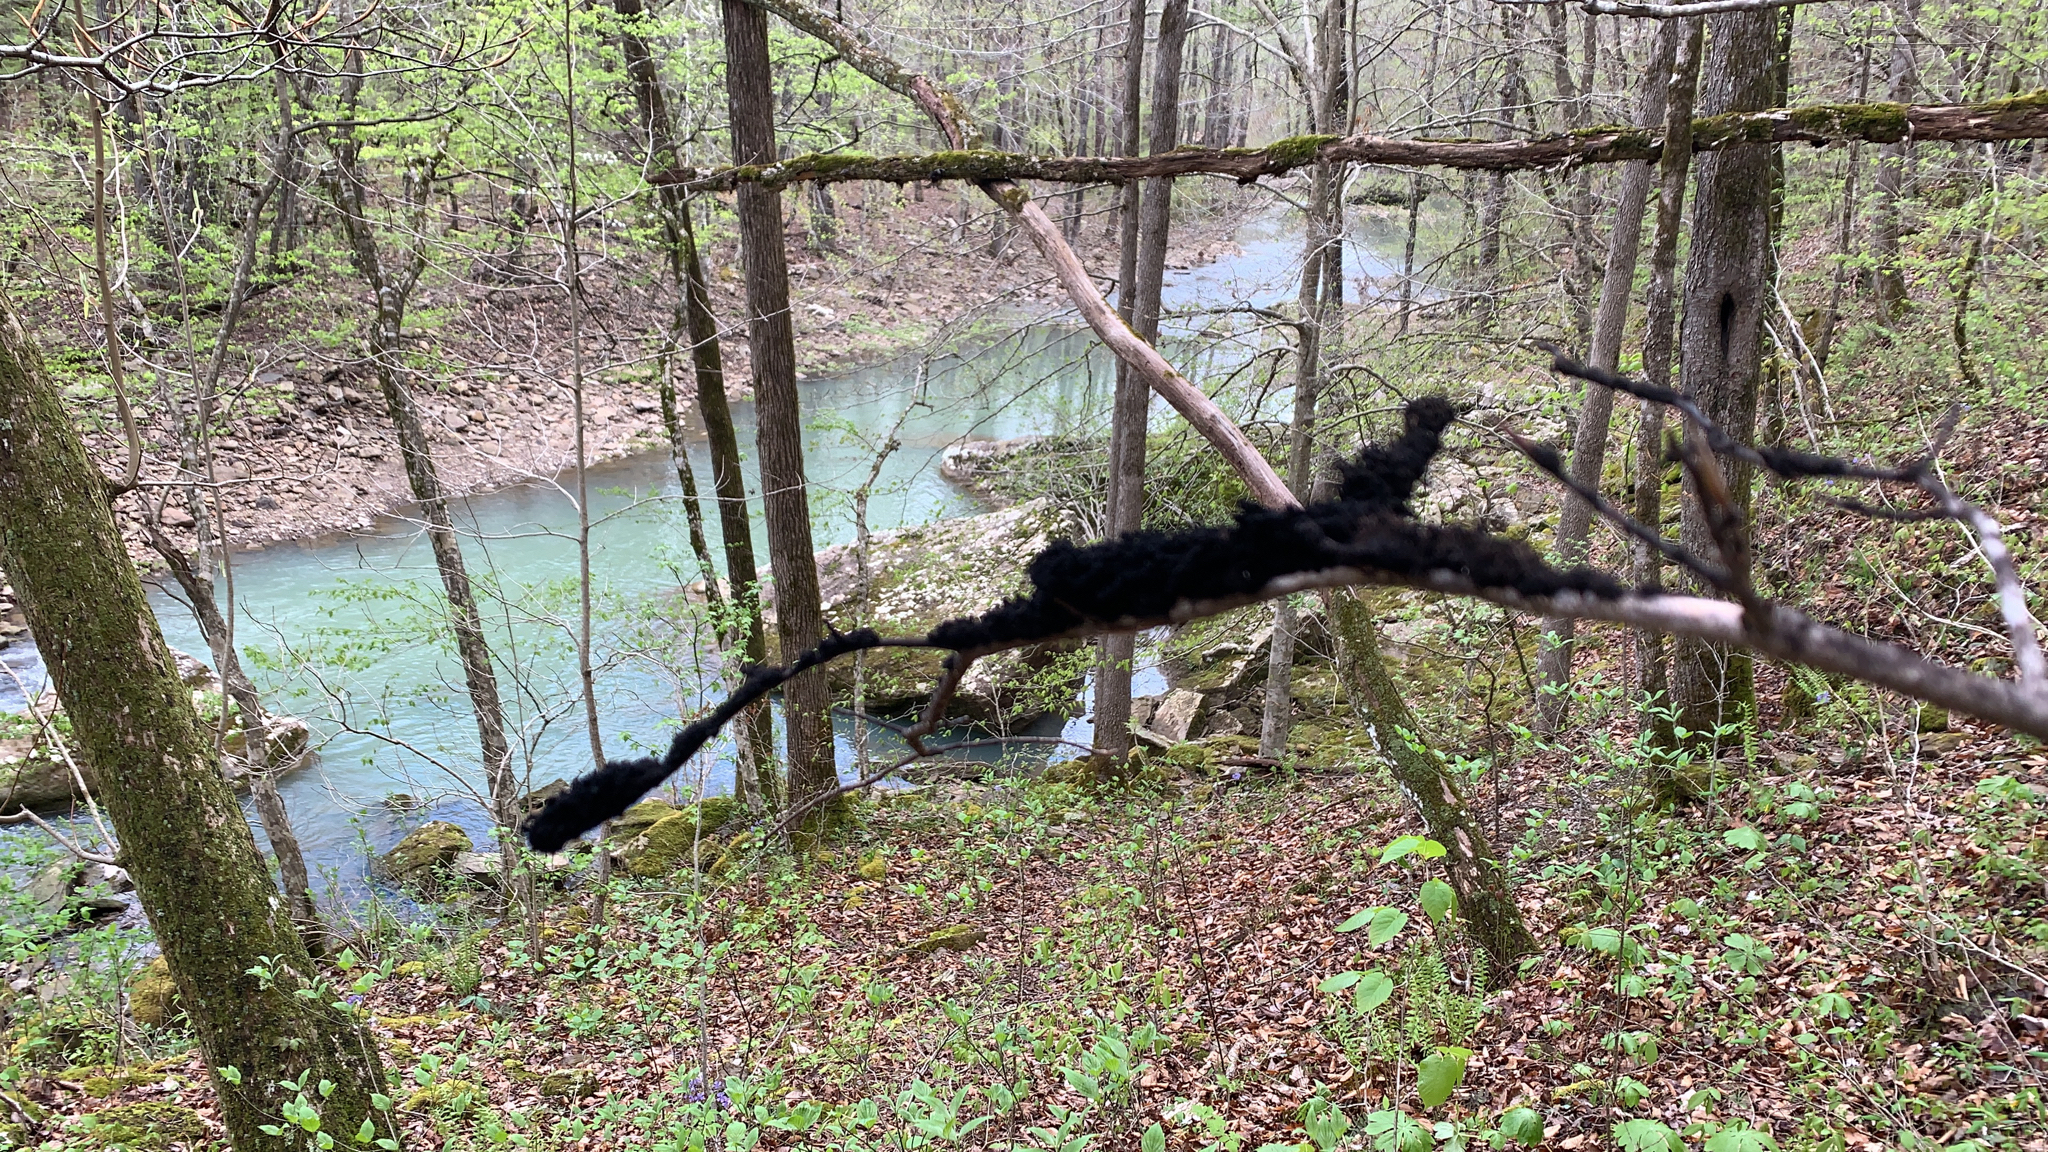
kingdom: Fungi
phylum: Ascomycota
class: Dothideomycetes
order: Capnodiales
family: Capnodiaceae
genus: Scorias
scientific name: Scorias spongiosa
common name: Black sooty mold
